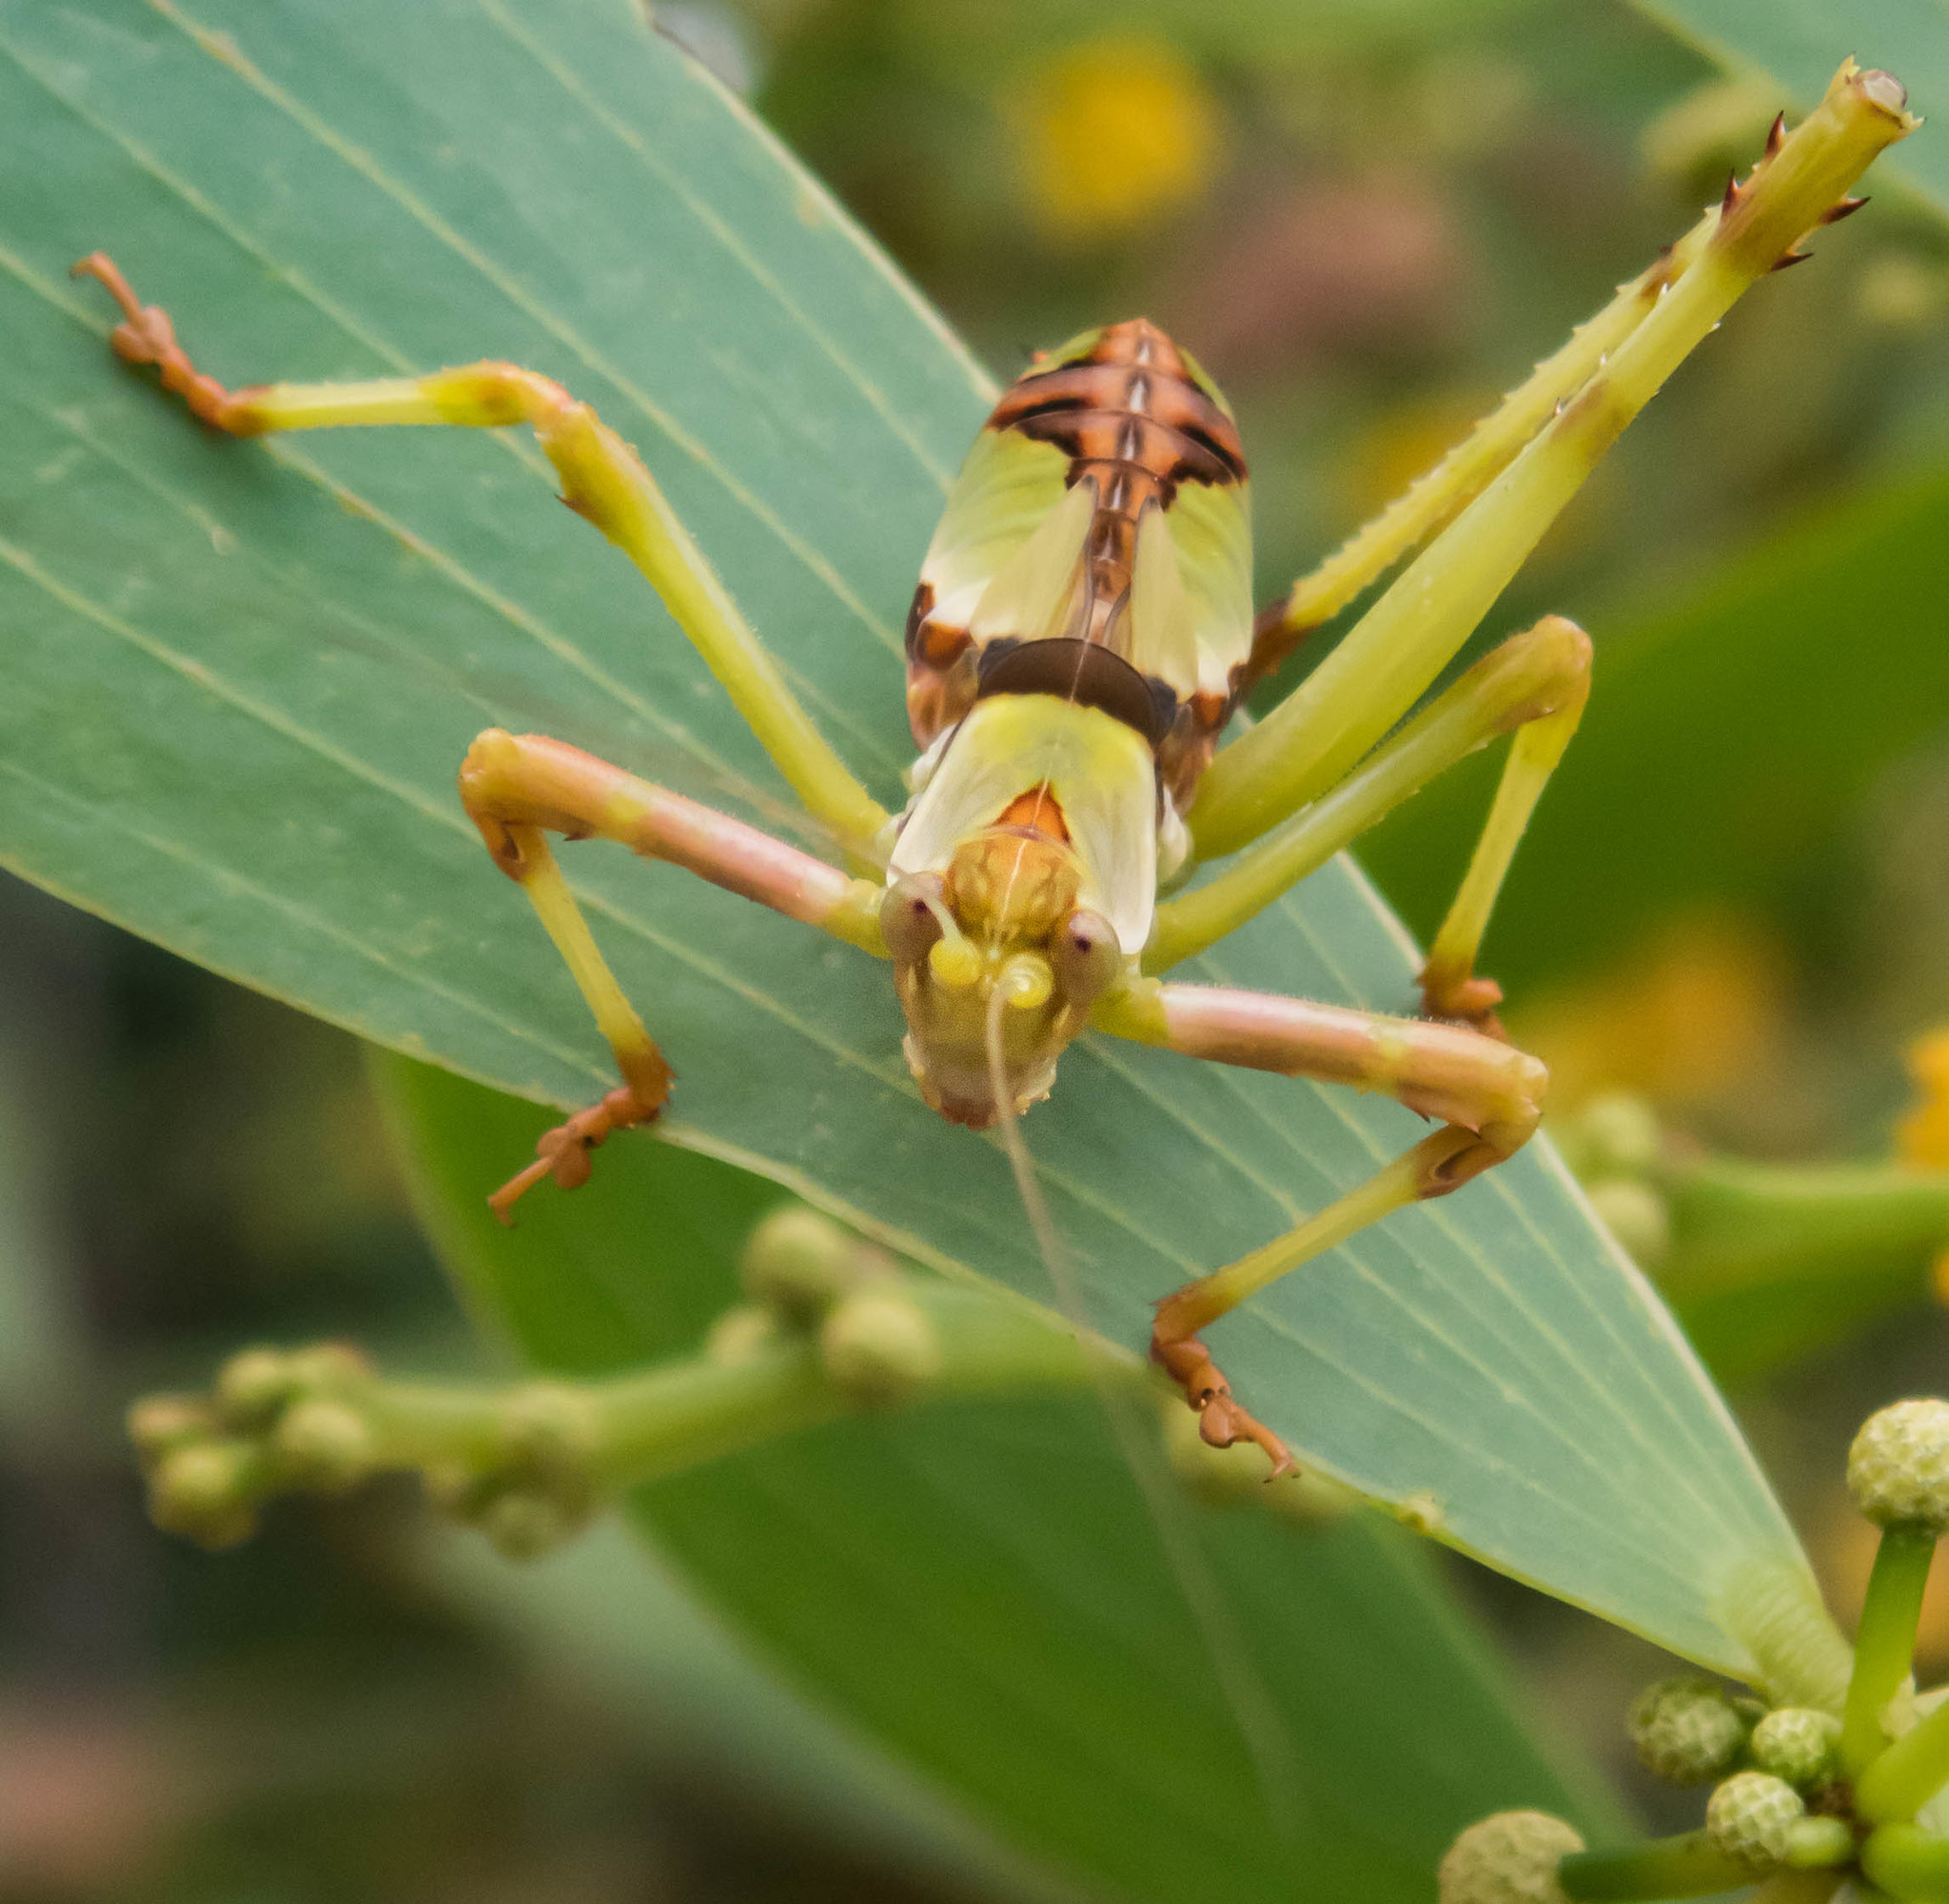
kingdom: Animalia
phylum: Arthropoda
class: Insecta
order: Orthoptera
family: Tettigoniidae
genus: Ephippitytha
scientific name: Ephippitytha trigintiduoguttata
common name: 32-spotted katydid
